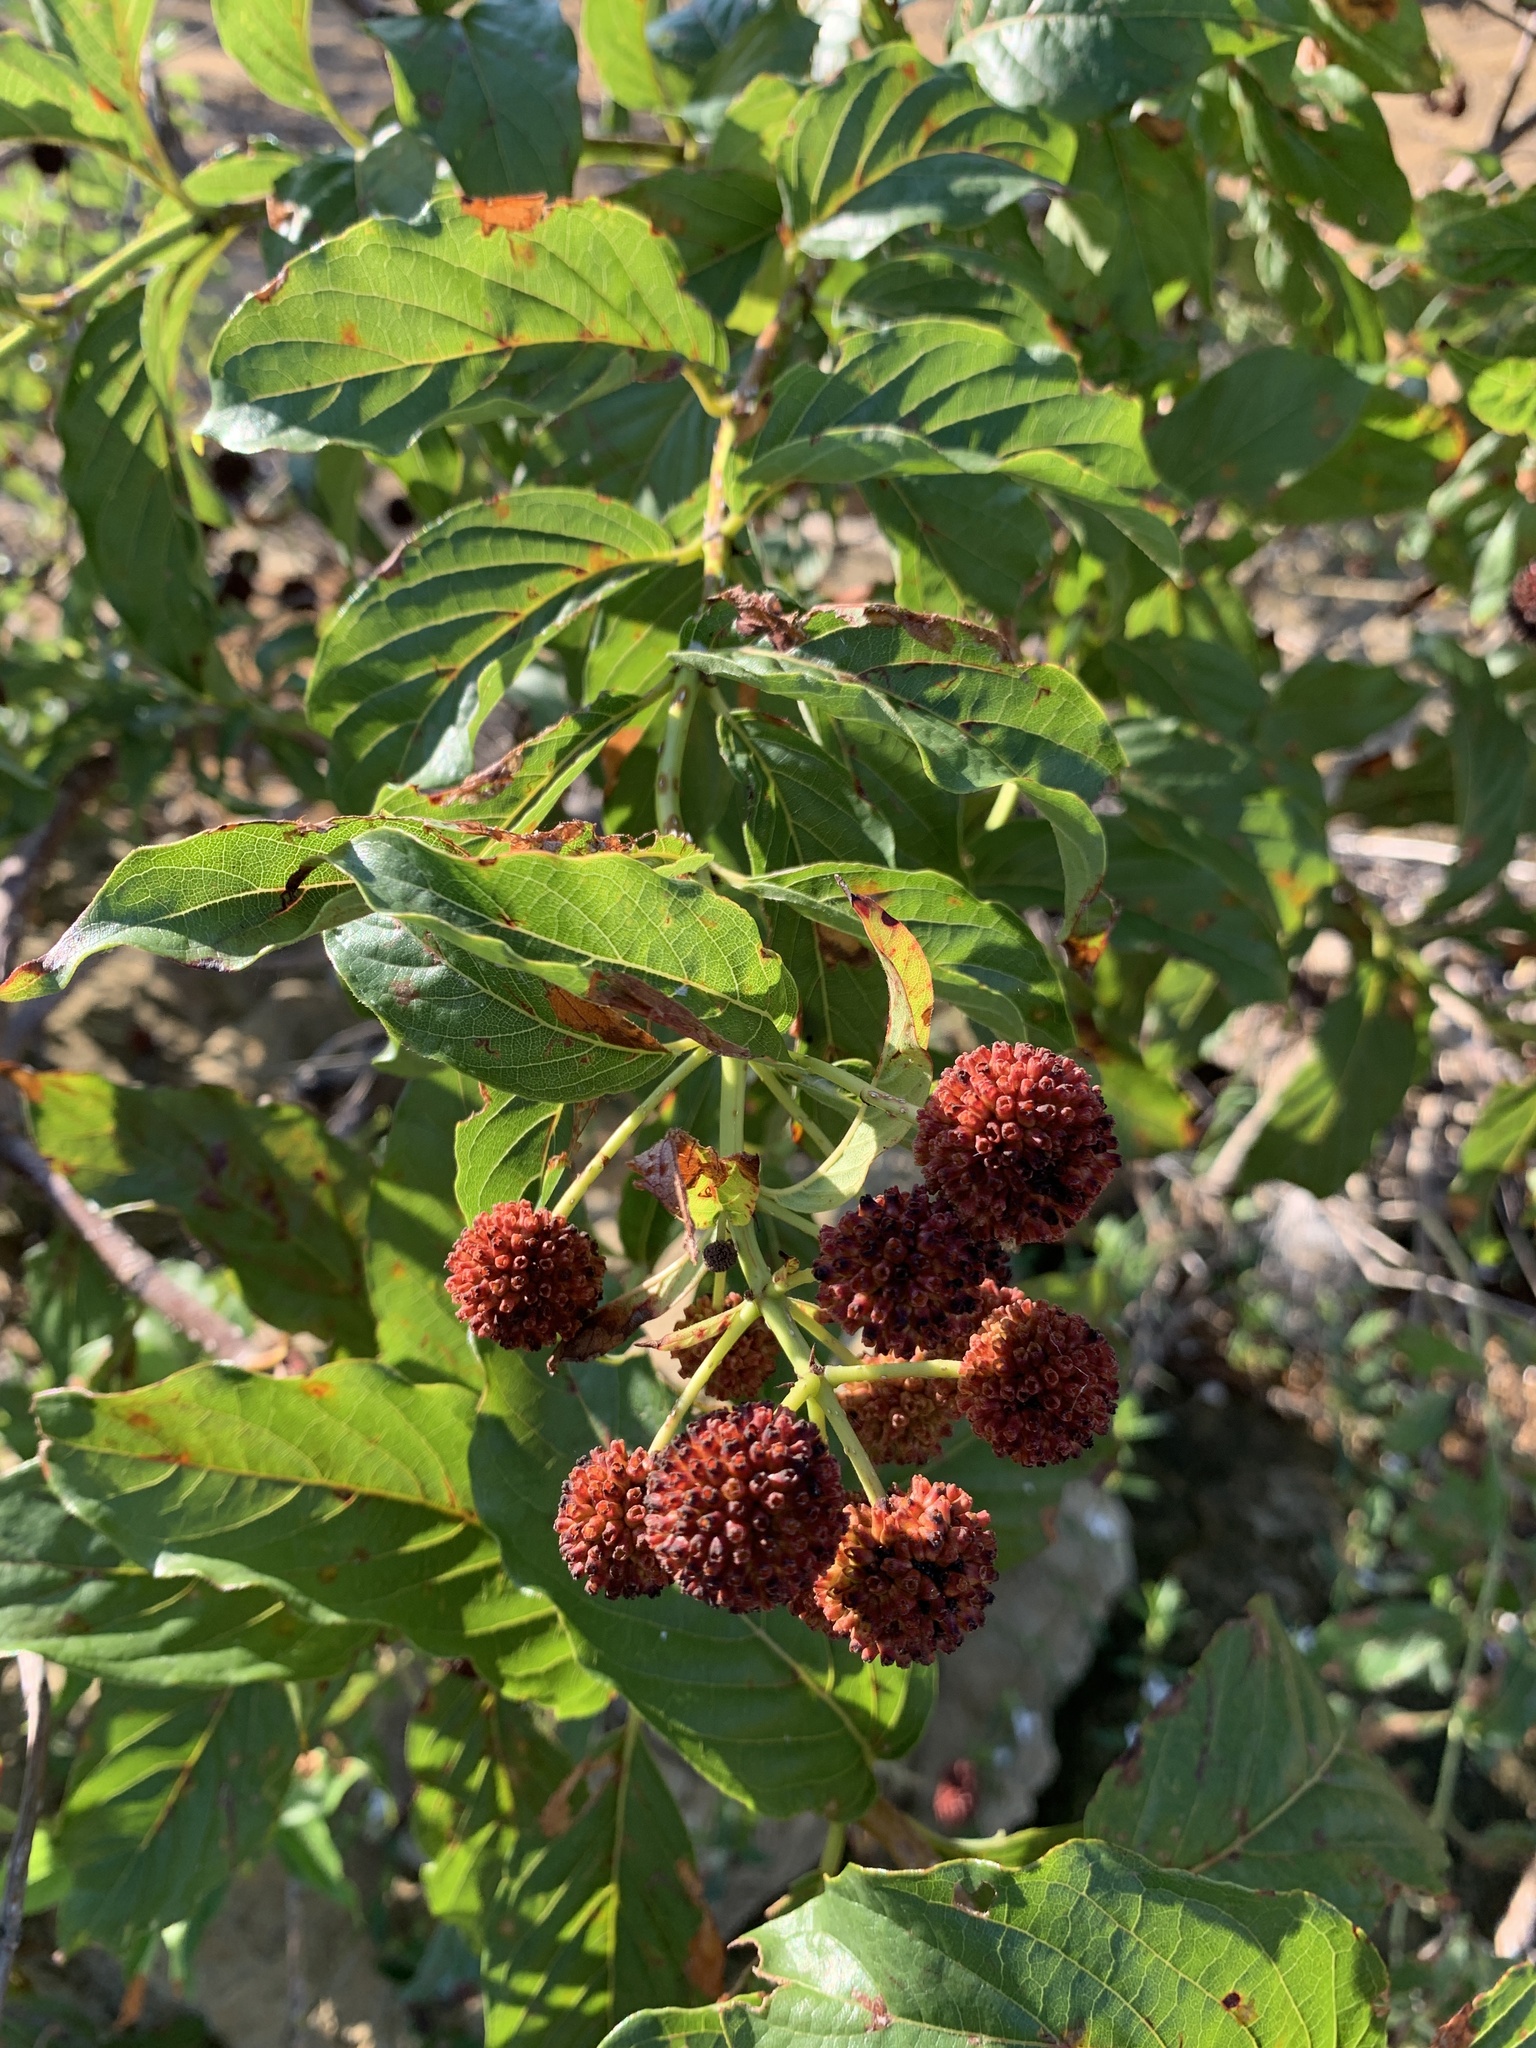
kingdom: Plantae
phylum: Tracheophyta
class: Magnoliopsida
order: Gentianales
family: Rubiaceae
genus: Cephalanthus
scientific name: Cephalanthus occidentalis
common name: Button-willow
